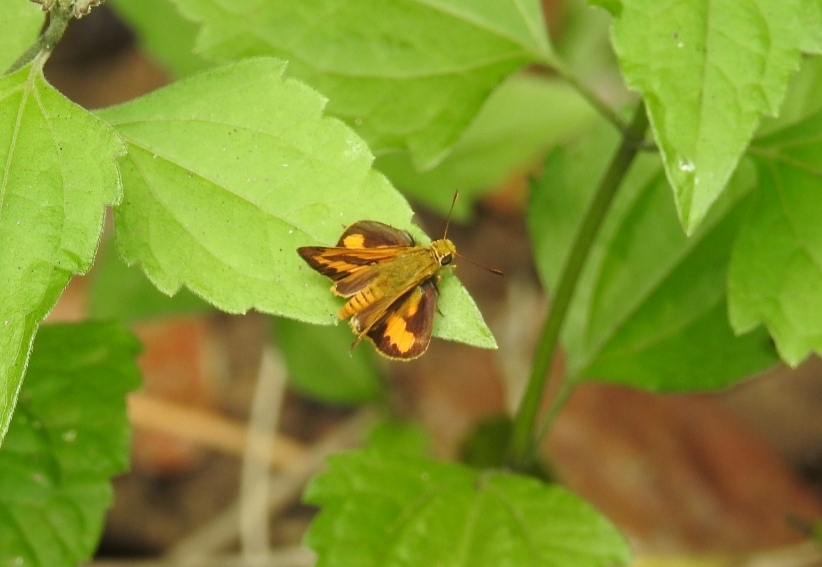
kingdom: Animalia
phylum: Arthropoda
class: Insecta
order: Lepidoptera
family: Hesperiidae
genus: Telicota
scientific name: Telicota bambusae
